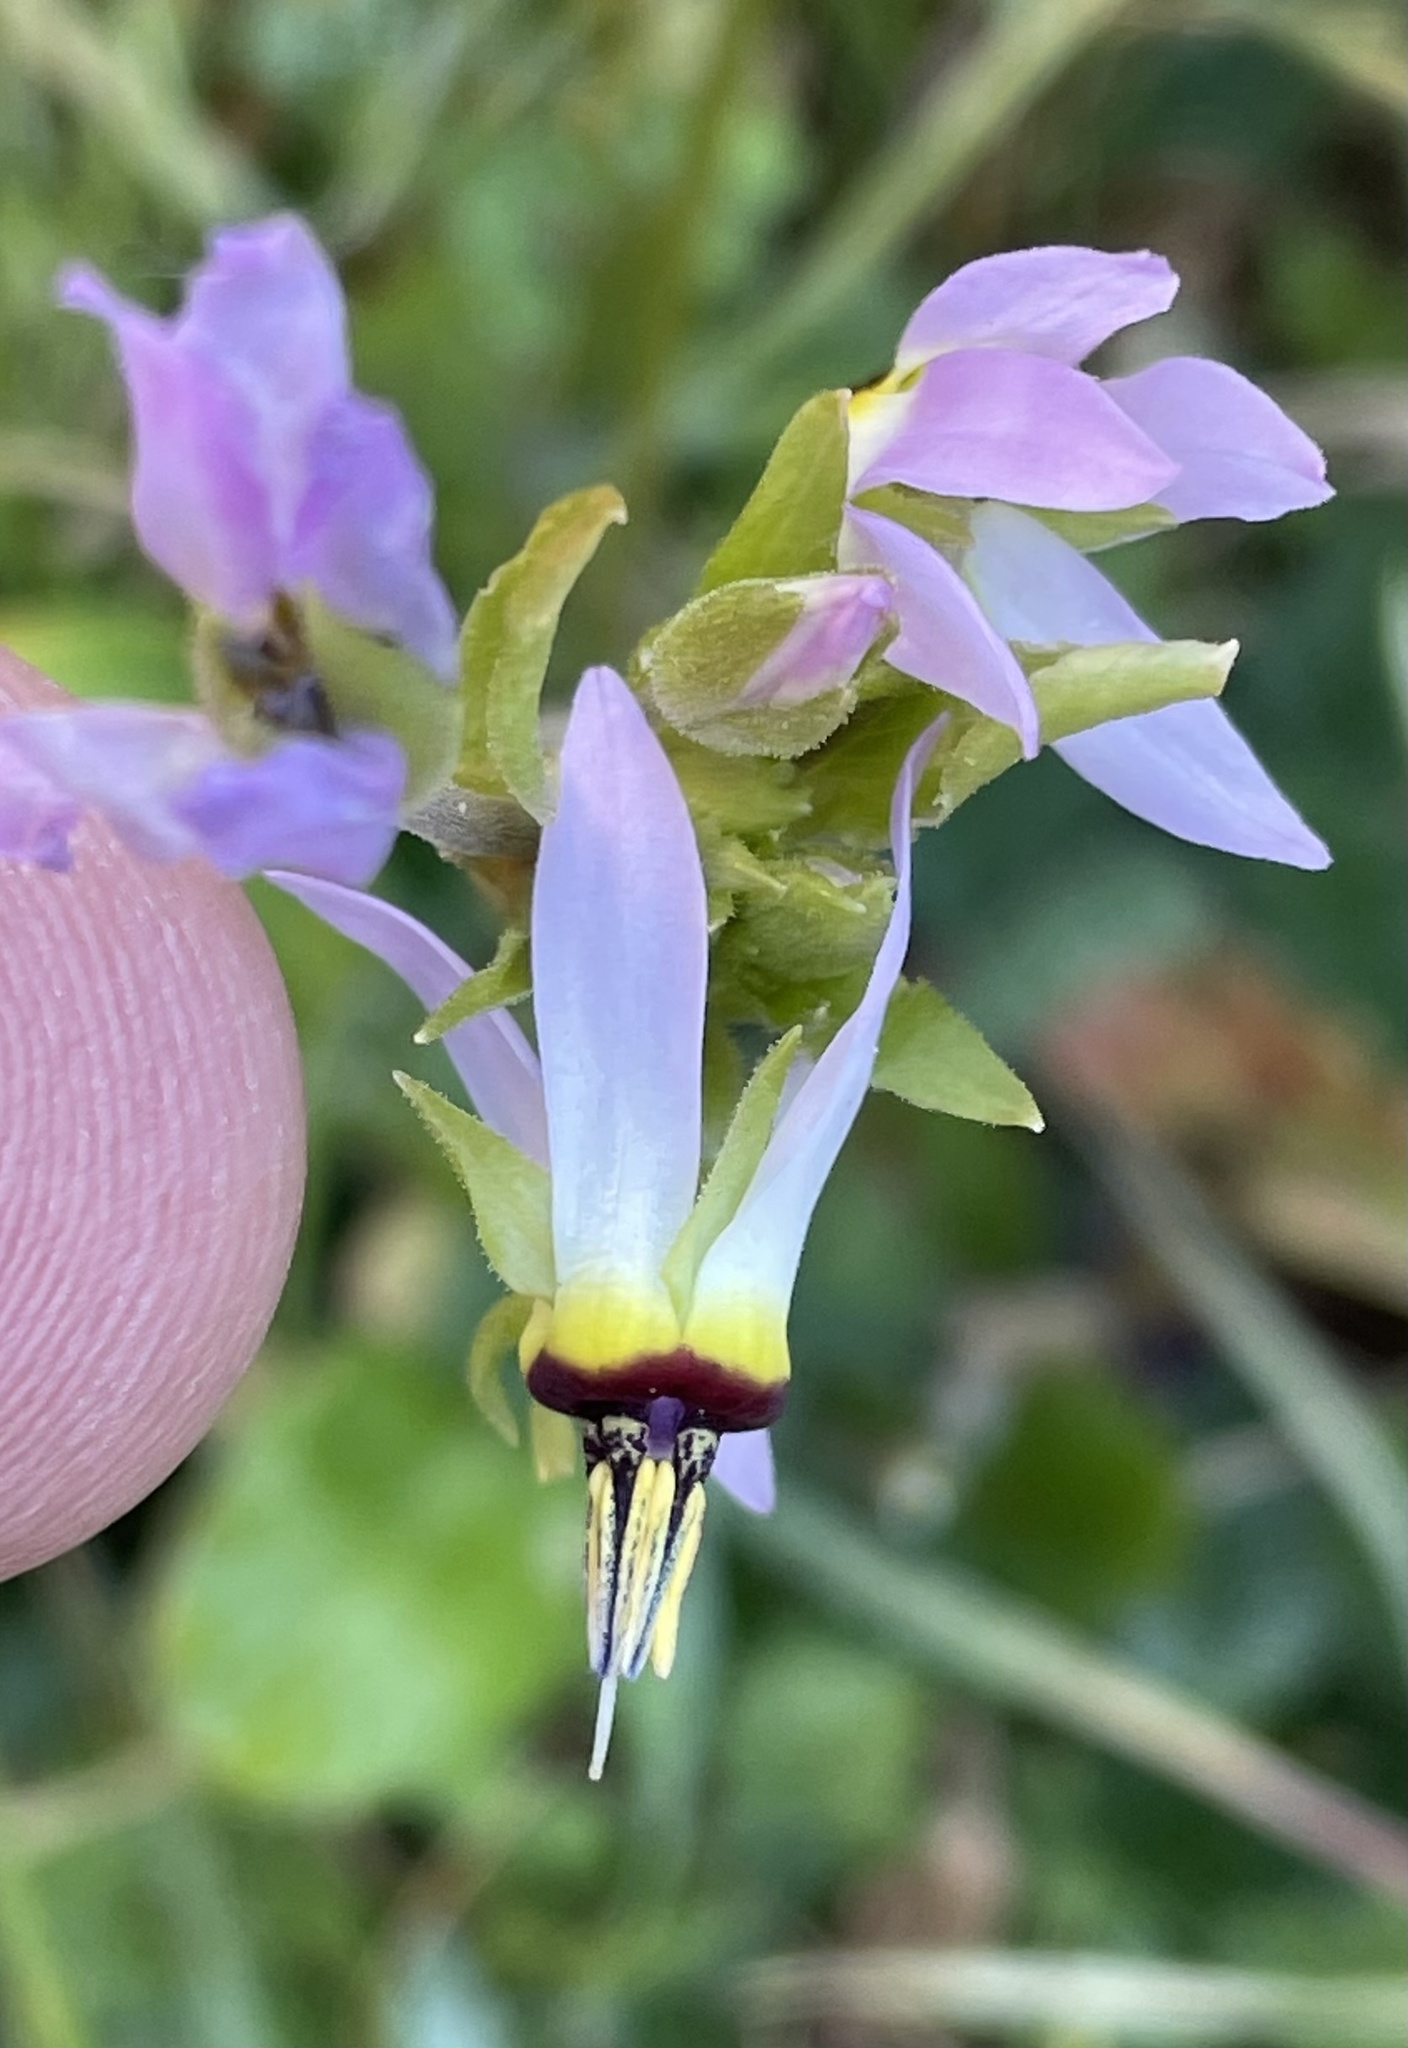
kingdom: Plantae
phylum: Tracheophyta
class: Magnoliopsida
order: Ericales
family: Primulaceae
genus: Dodecatheon
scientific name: Dodecatheon clevelandii
